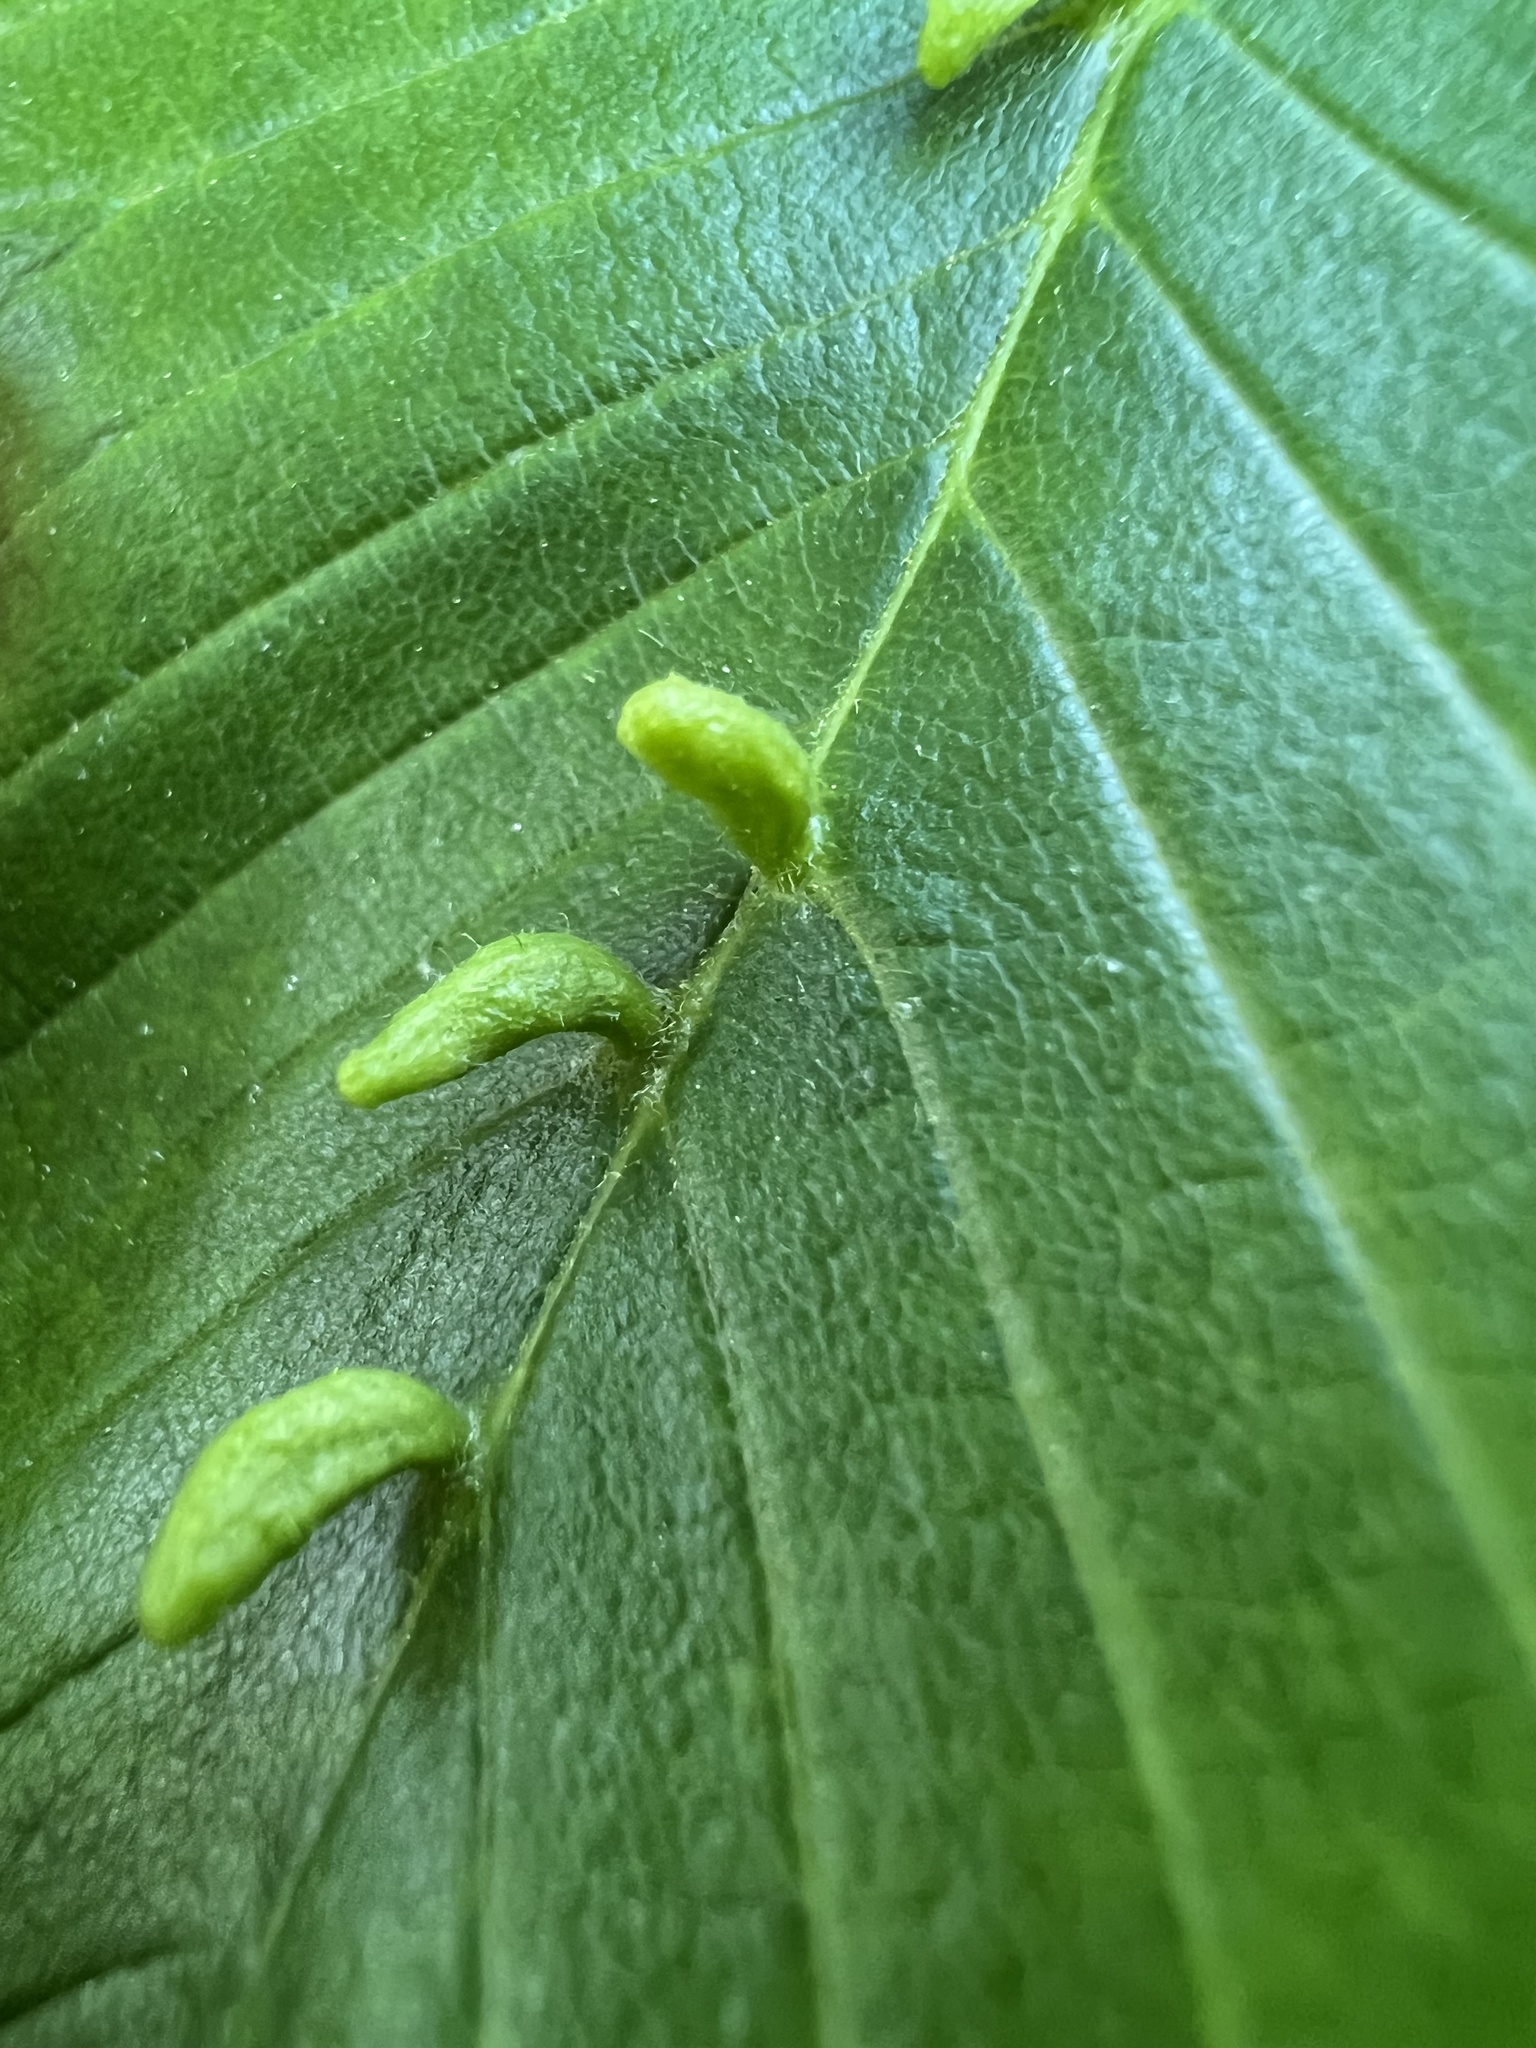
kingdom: Animalia
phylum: Arthropoda
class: Arachnida
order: Trombidiformes
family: Eriophyidae
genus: Aceria
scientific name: Aceria
